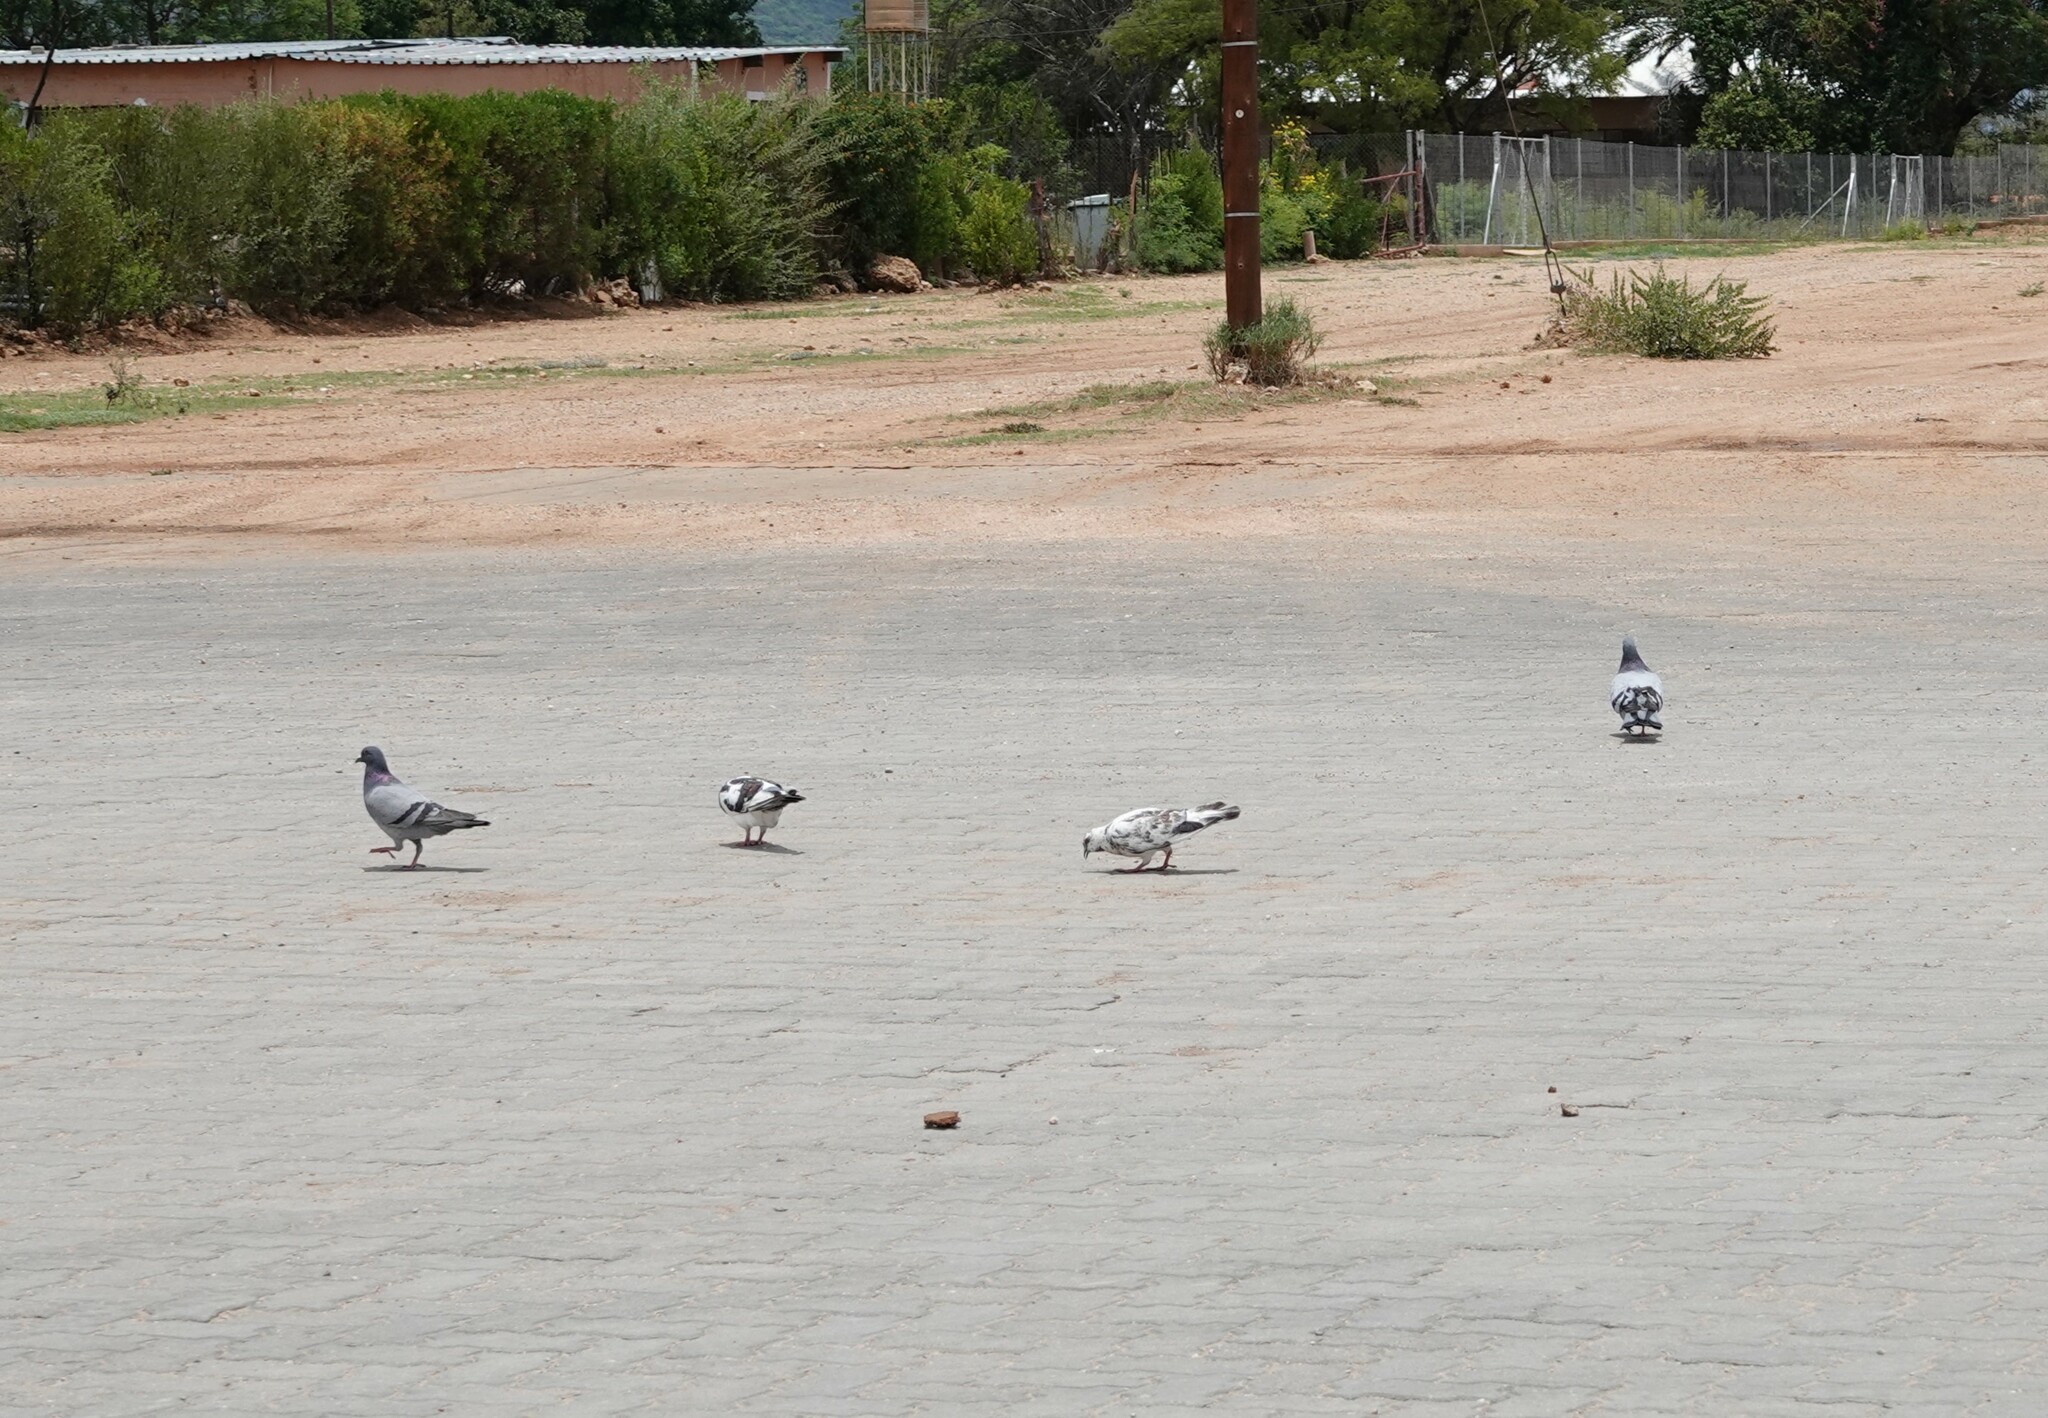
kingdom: Animalia
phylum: Chordata
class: Aves
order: Columbiformes
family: Columbidae
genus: Columba
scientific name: Columba livia
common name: Rock pigeon
